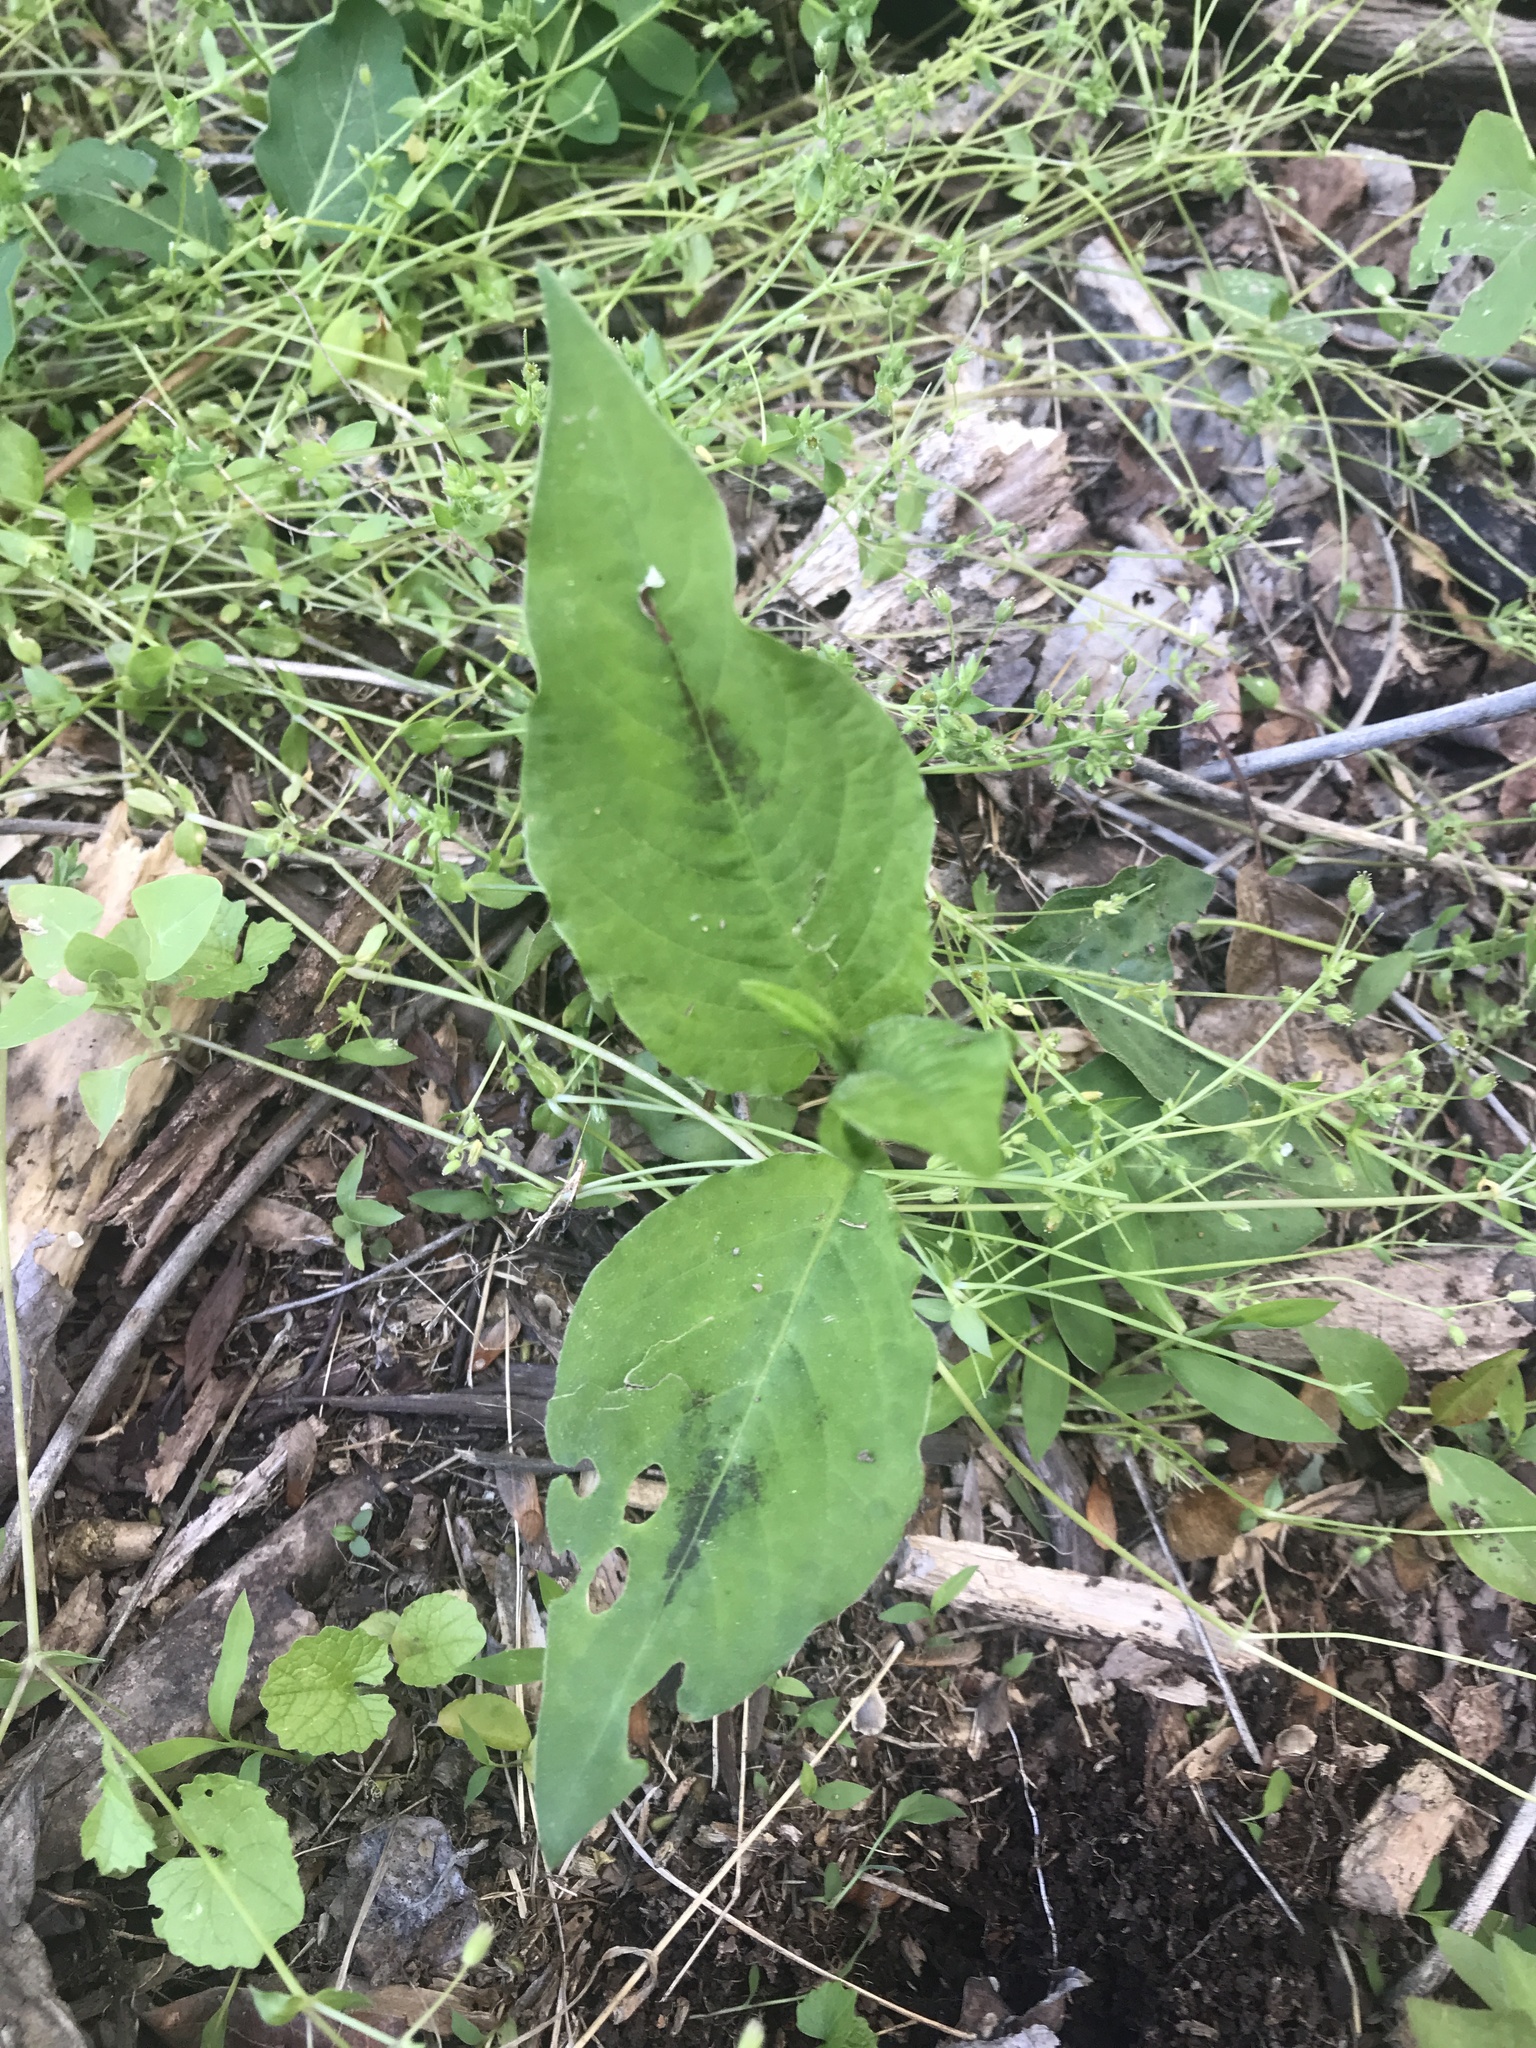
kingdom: Plantae
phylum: Tracheophyta
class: Magnoliopsida
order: Caryophyllales
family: Polygonaceae
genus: Persicaria
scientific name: Persicaria virginiana
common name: Jumpseed
